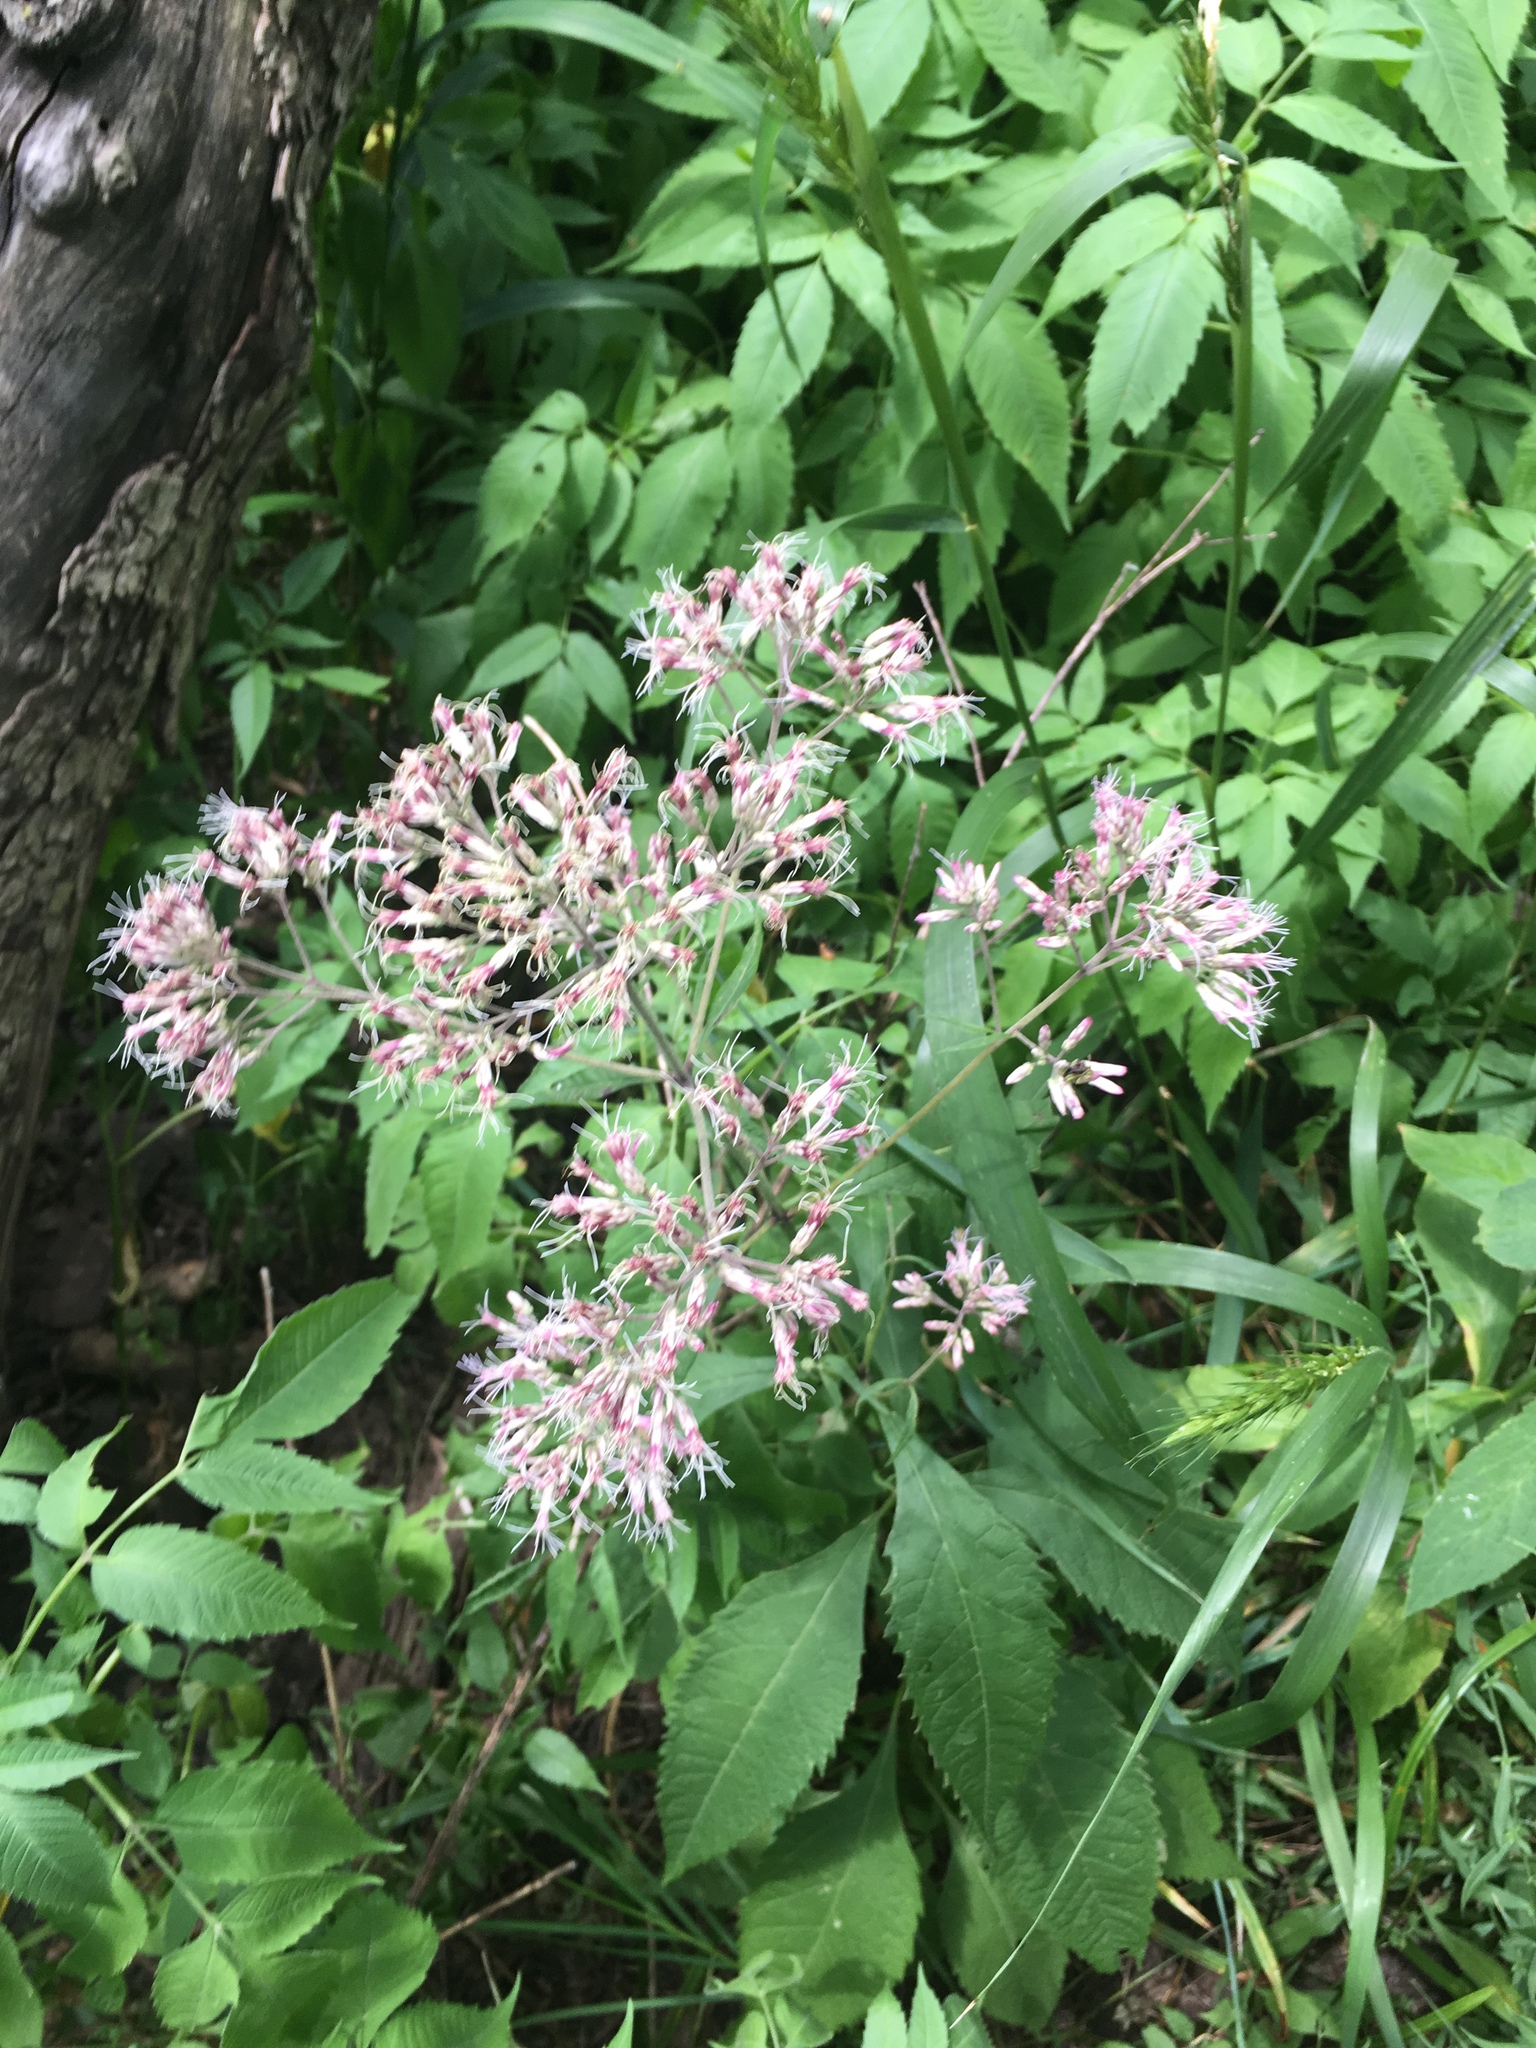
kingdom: Plantae
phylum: Tracheophyta
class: Magnoliopsida
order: Asterales
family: Asteraceae
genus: Eutrochium
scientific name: Eutrochium purpureum
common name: Gravelroot
